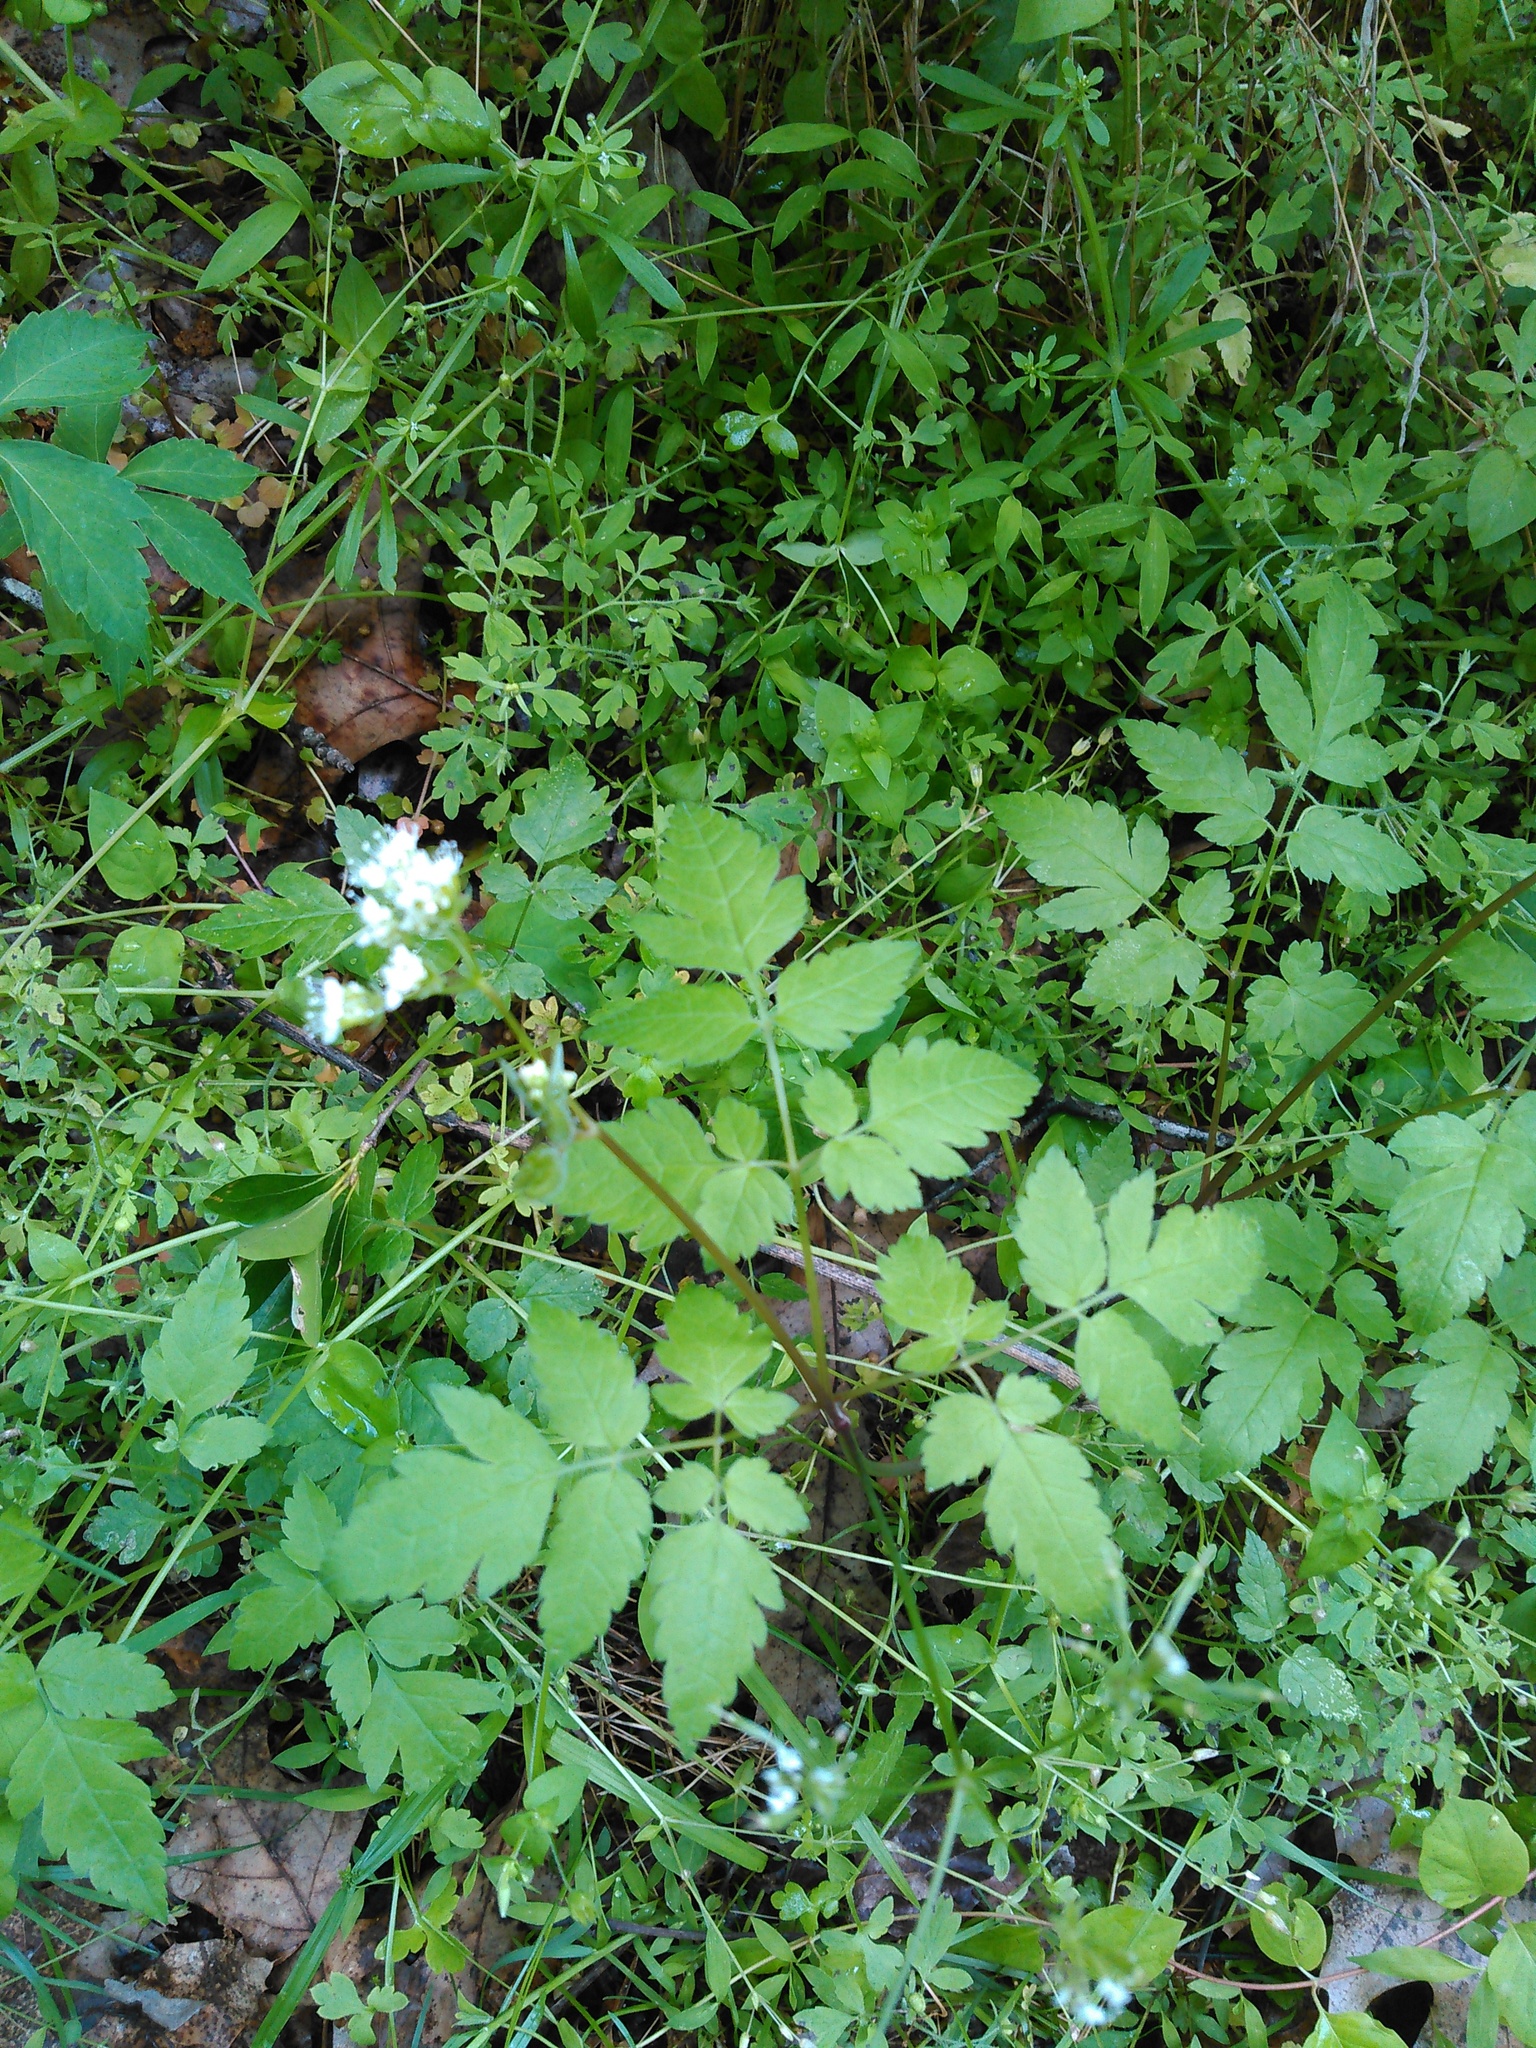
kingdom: Plantae
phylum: Tracheophyta
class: Magnoliopsida
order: Apiales
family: Apiaceae
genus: Osmorhiza
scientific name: Osmorhiza longistylis
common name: Smooth sweet cicely
